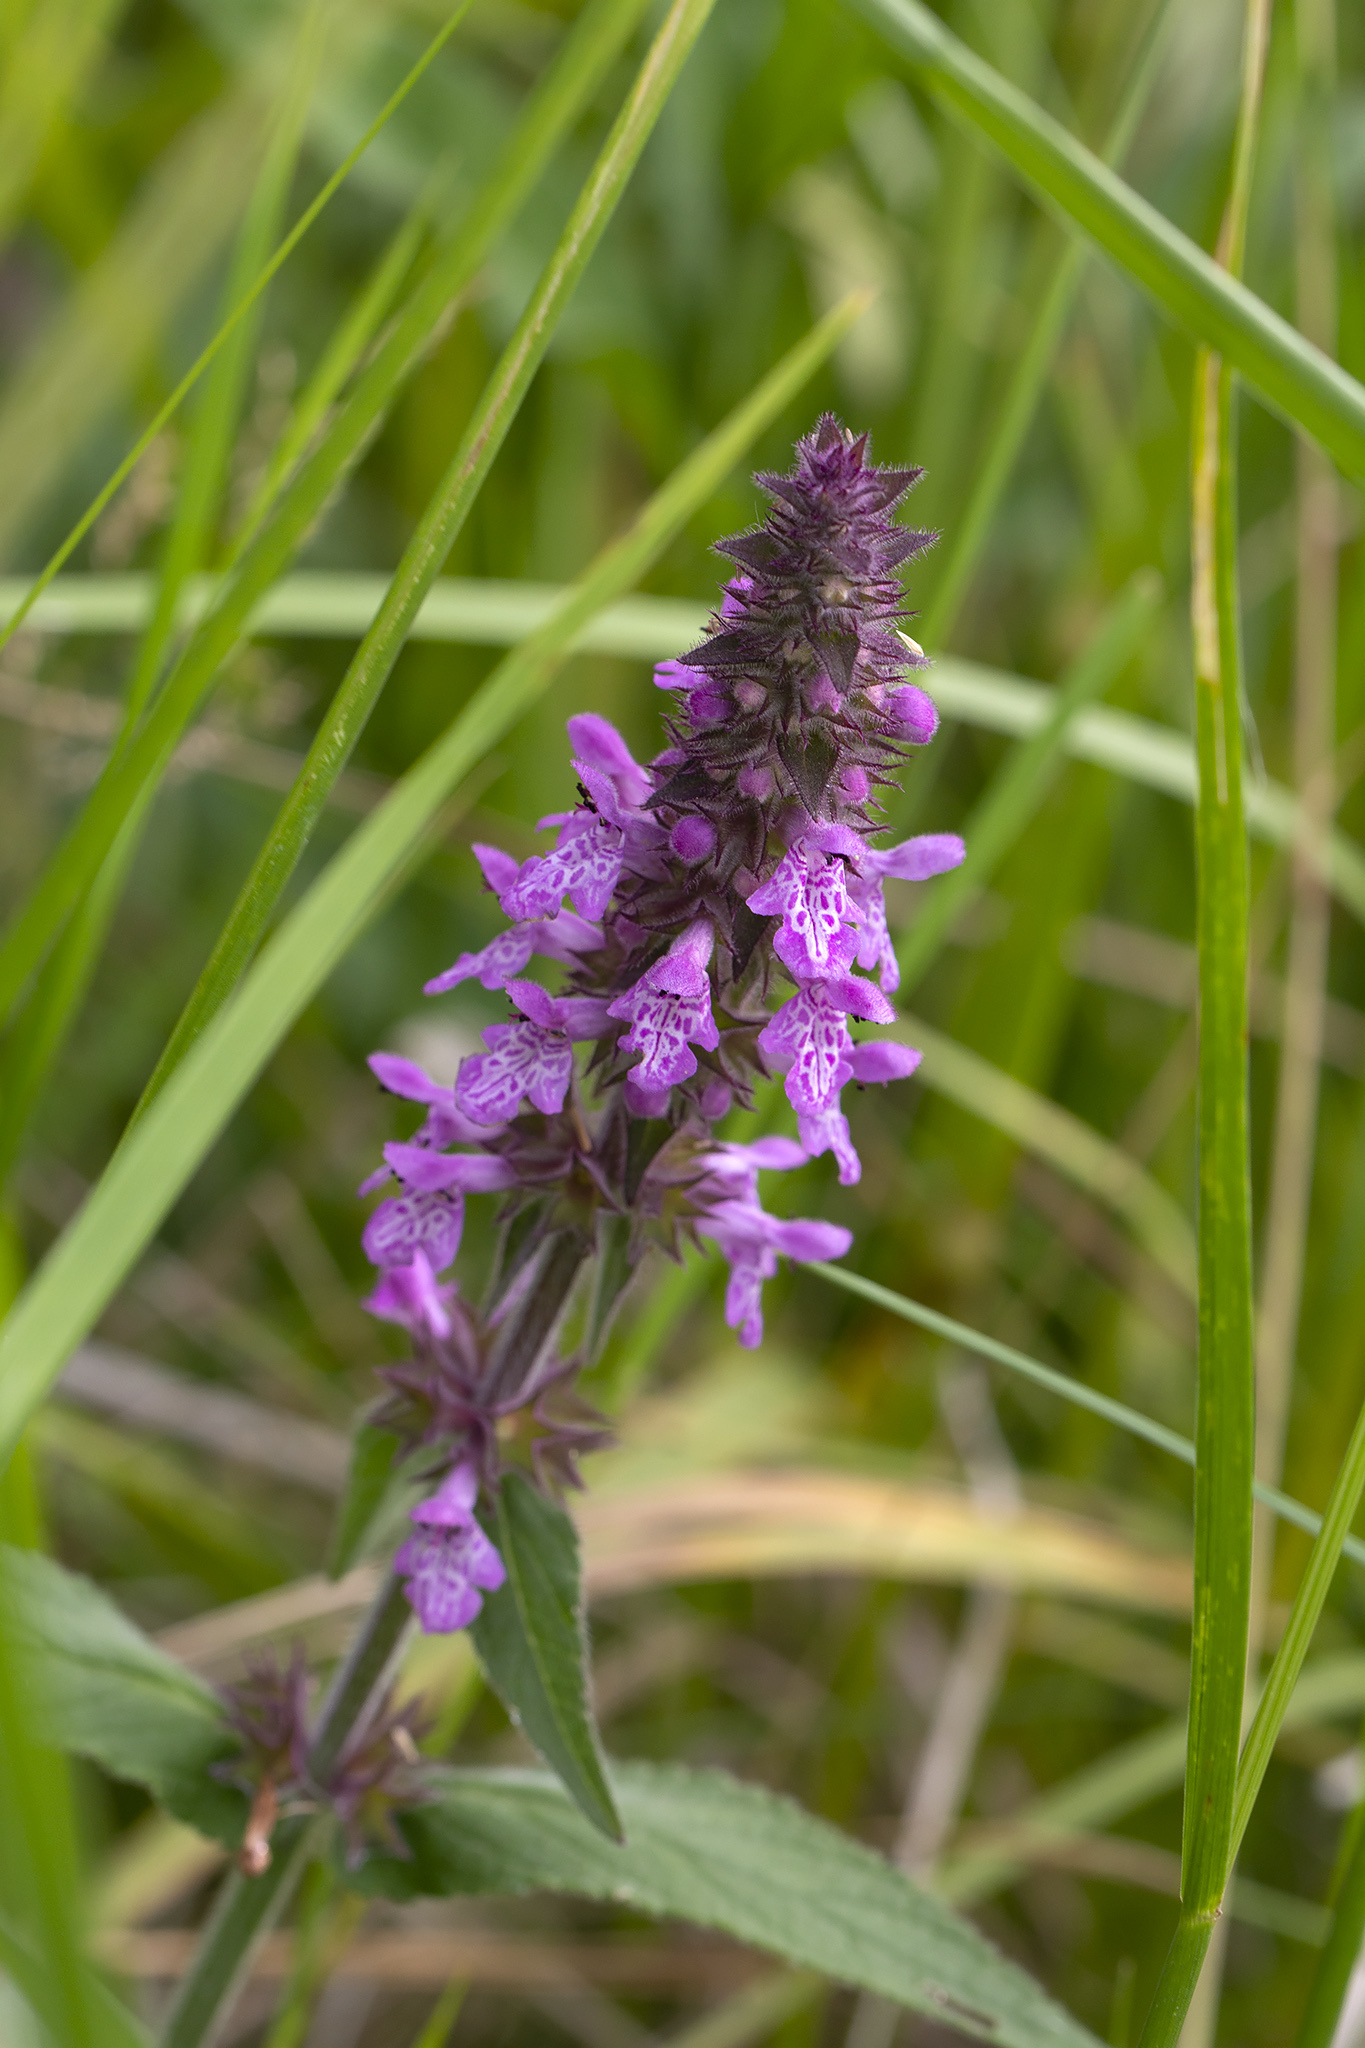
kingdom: Plantae
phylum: Tracheophyta
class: Magnoliopsida
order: Lamiales
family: Lamiaceae
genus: Stachys
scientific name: Stachys palustris
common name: Marsh woundwort
